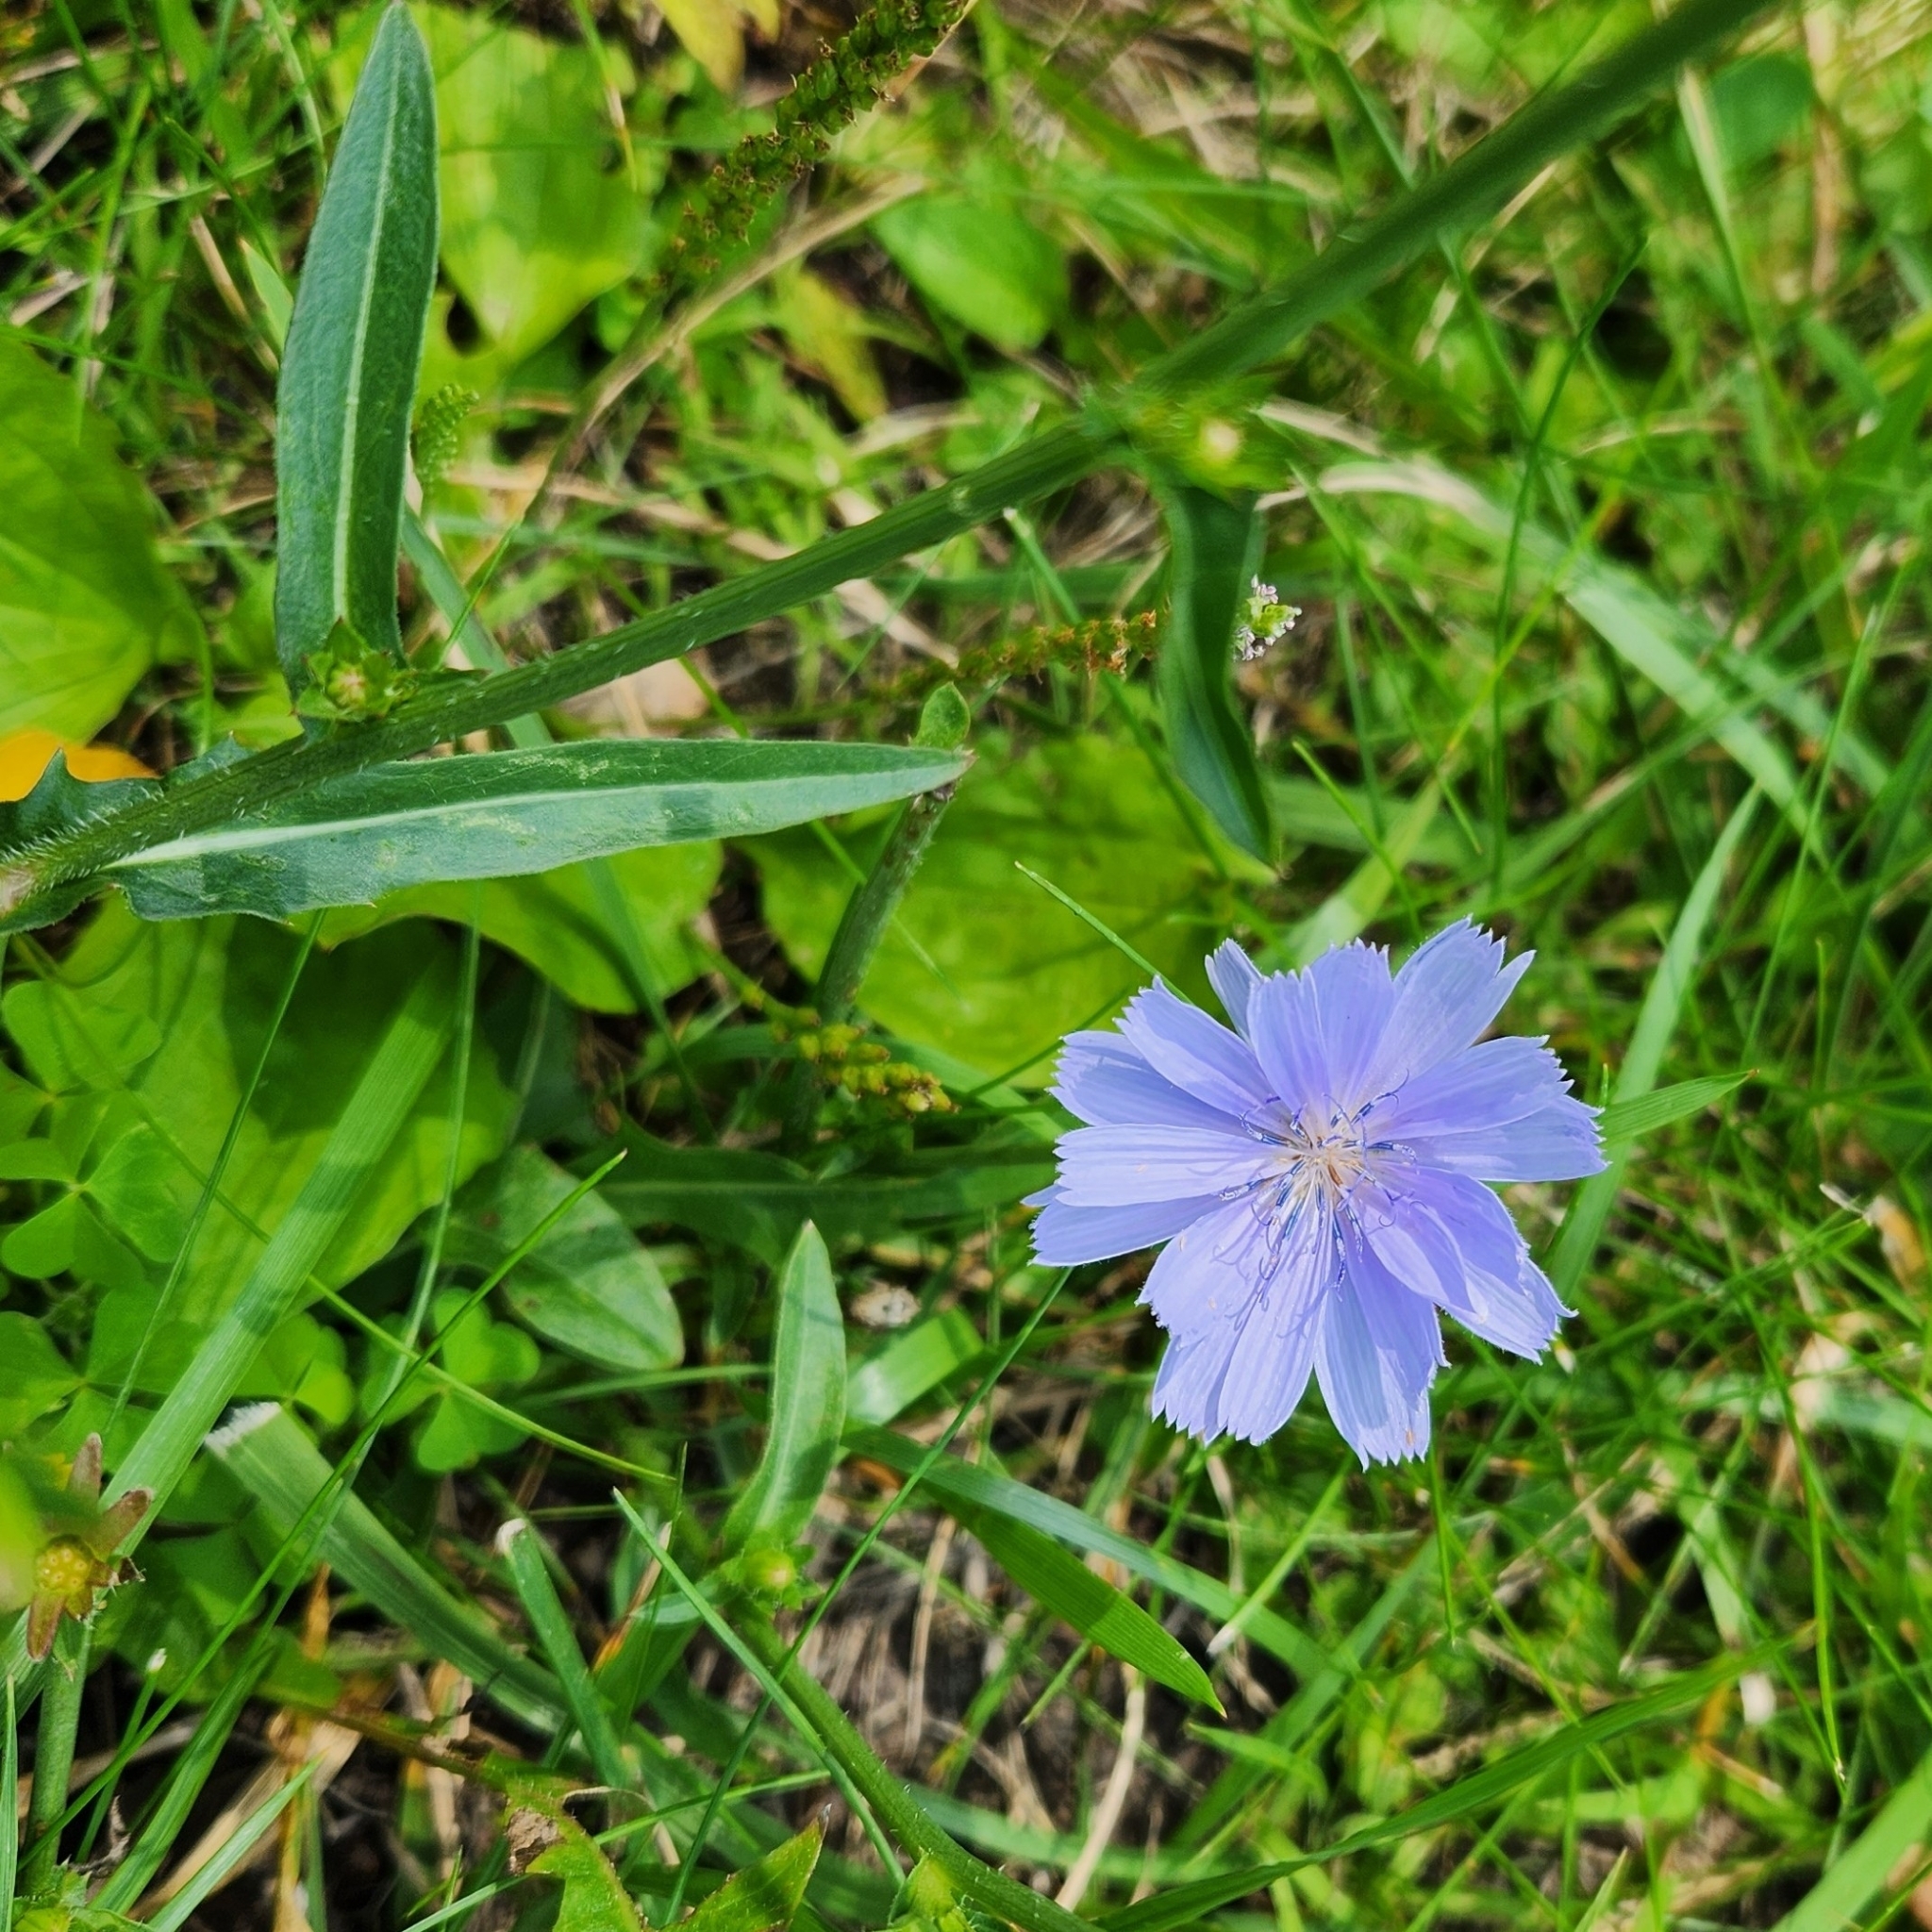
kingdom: Plantae
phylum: Tracheophyta
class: Magnoliopsida
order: Asterales
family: Asteraceae
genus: Cichorium
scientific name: Cichorium intybus
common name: Chicory
